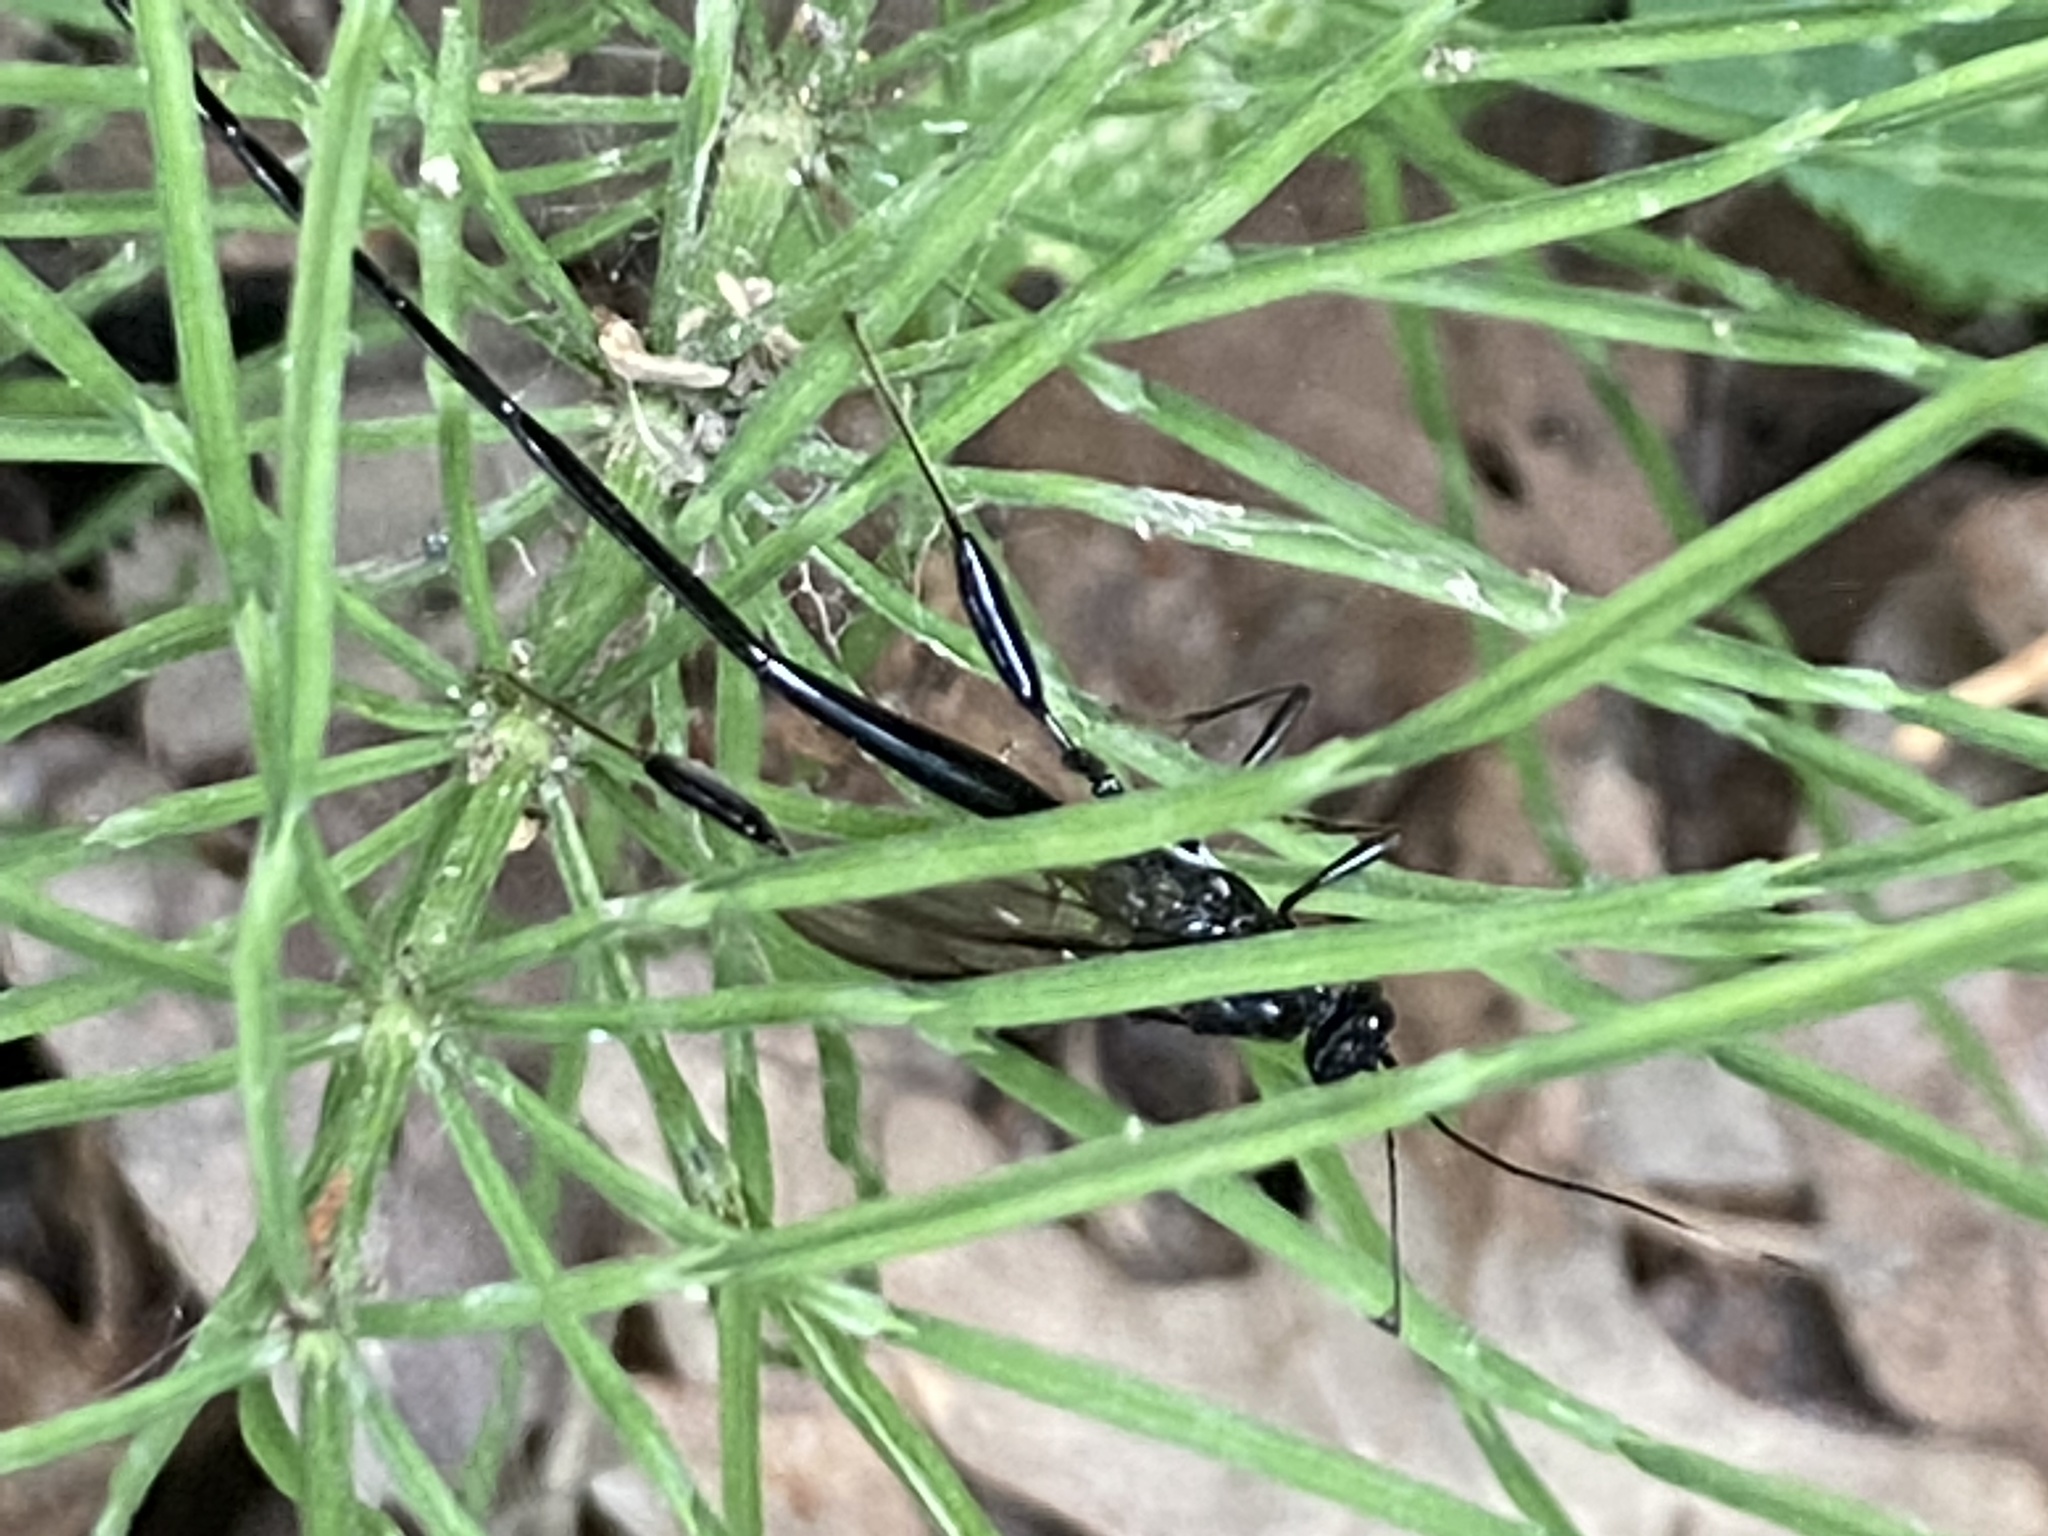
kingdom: Animalia
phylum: Arthropoda
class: Insecta
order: Hymenoptera
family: Pelecinidae
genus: Pelecinus
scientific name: Pelecinus polyturator
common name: American pelecinid wasp
